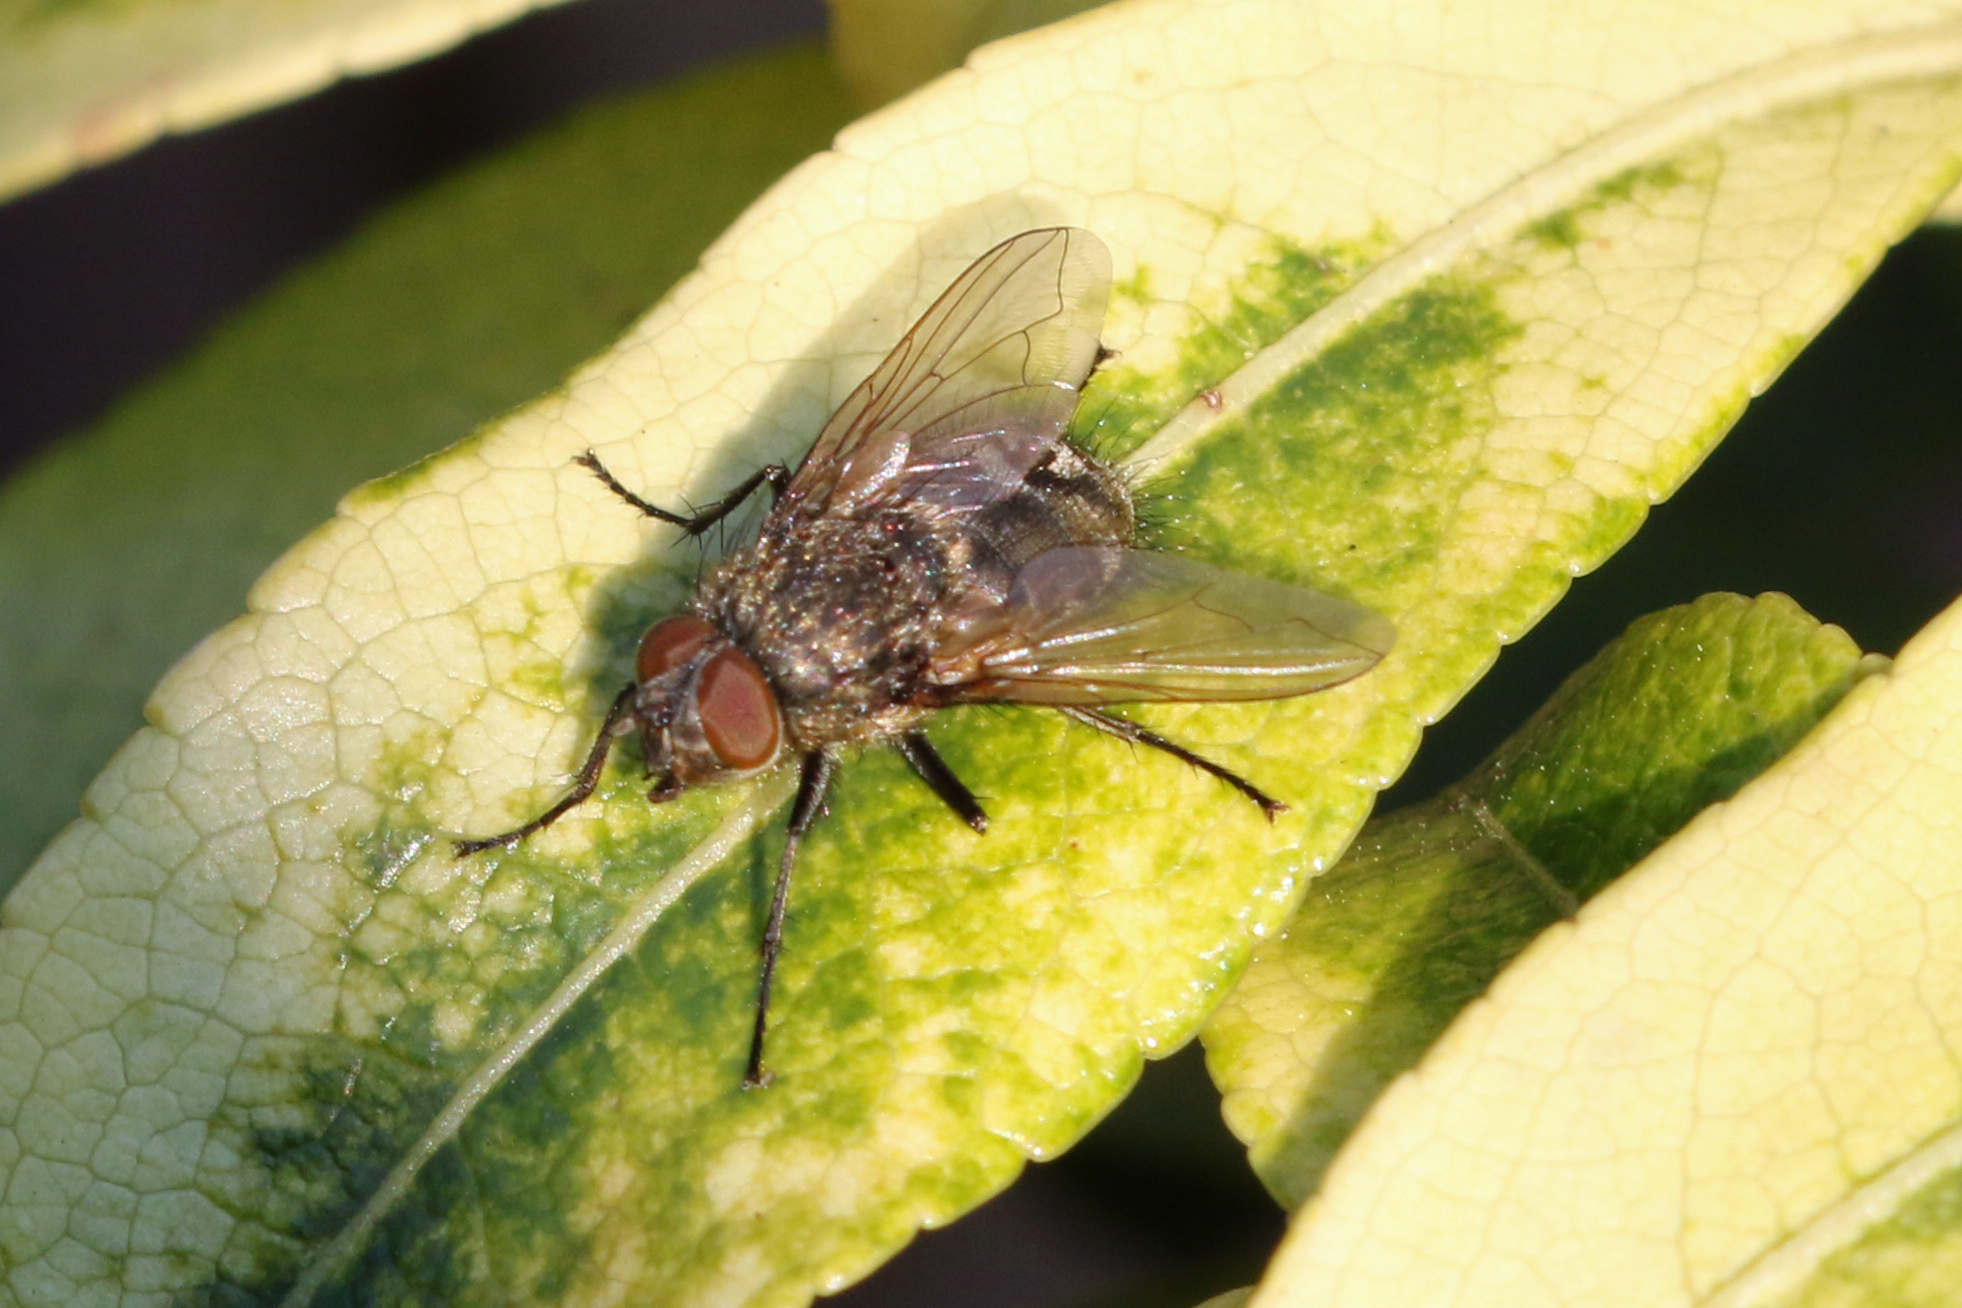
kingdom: Animalia
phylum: Arthropoda
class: Insecta
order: Diptera
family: Polleniidae
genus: Pollenia
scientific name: Pollenia
